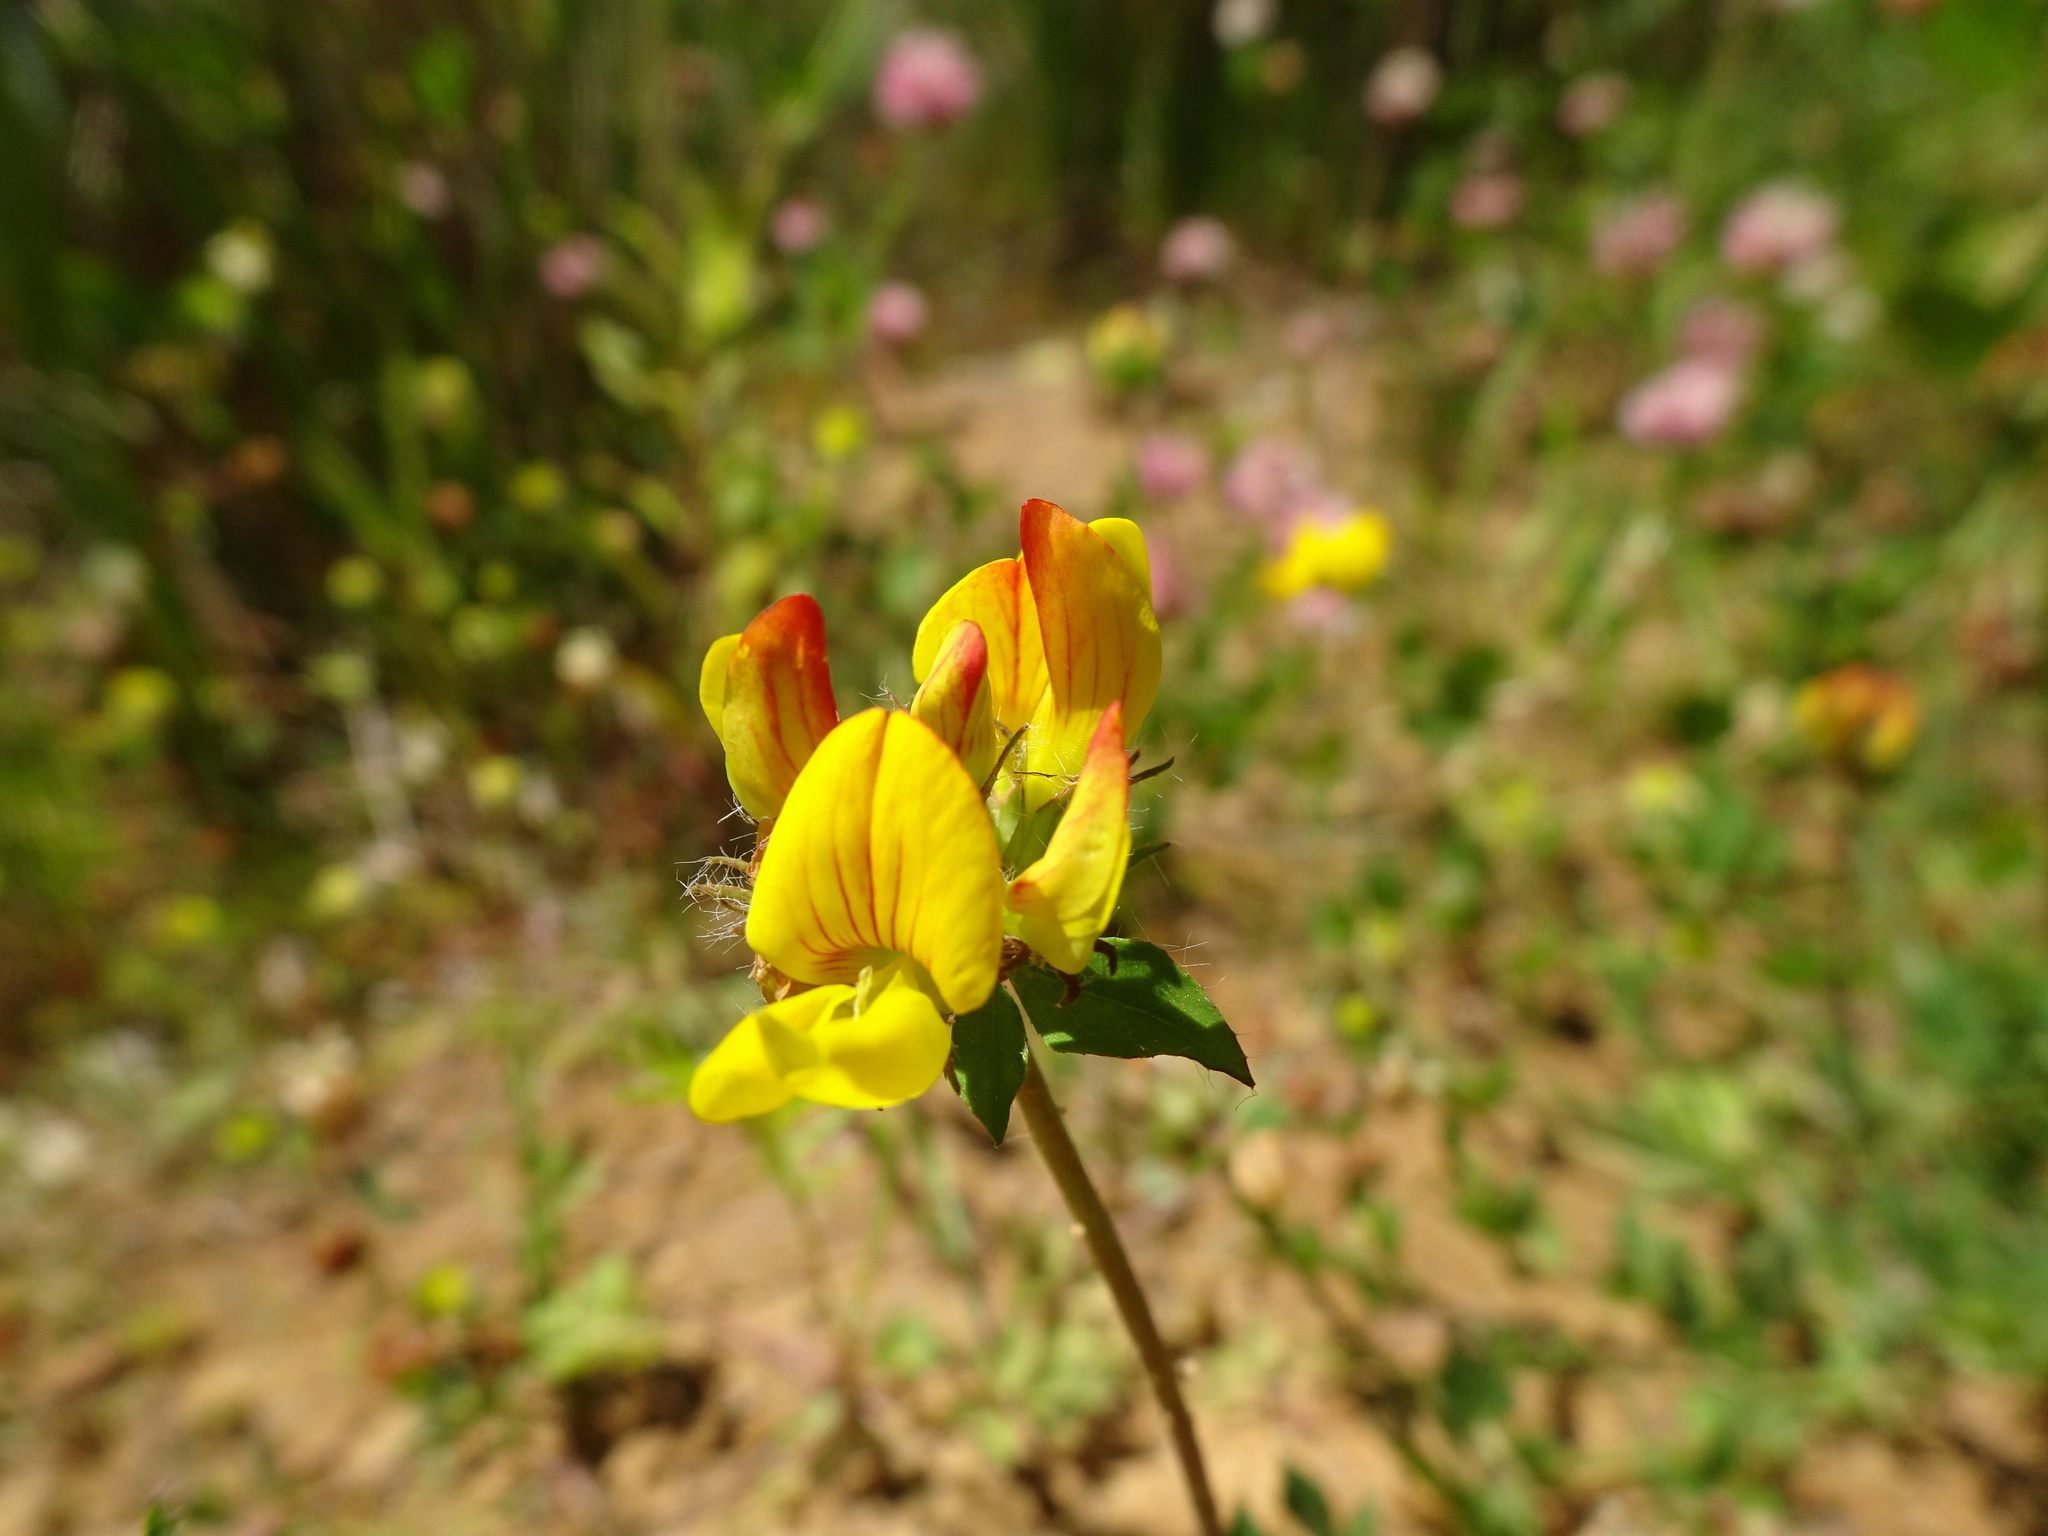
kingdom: Plantae
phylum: Tracheophyta
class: Magnoliopsida
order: Fabales
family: Fabaceae
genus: Lotus
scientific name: Lotus corniculatus
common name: Common bird's-foot-trefoil
